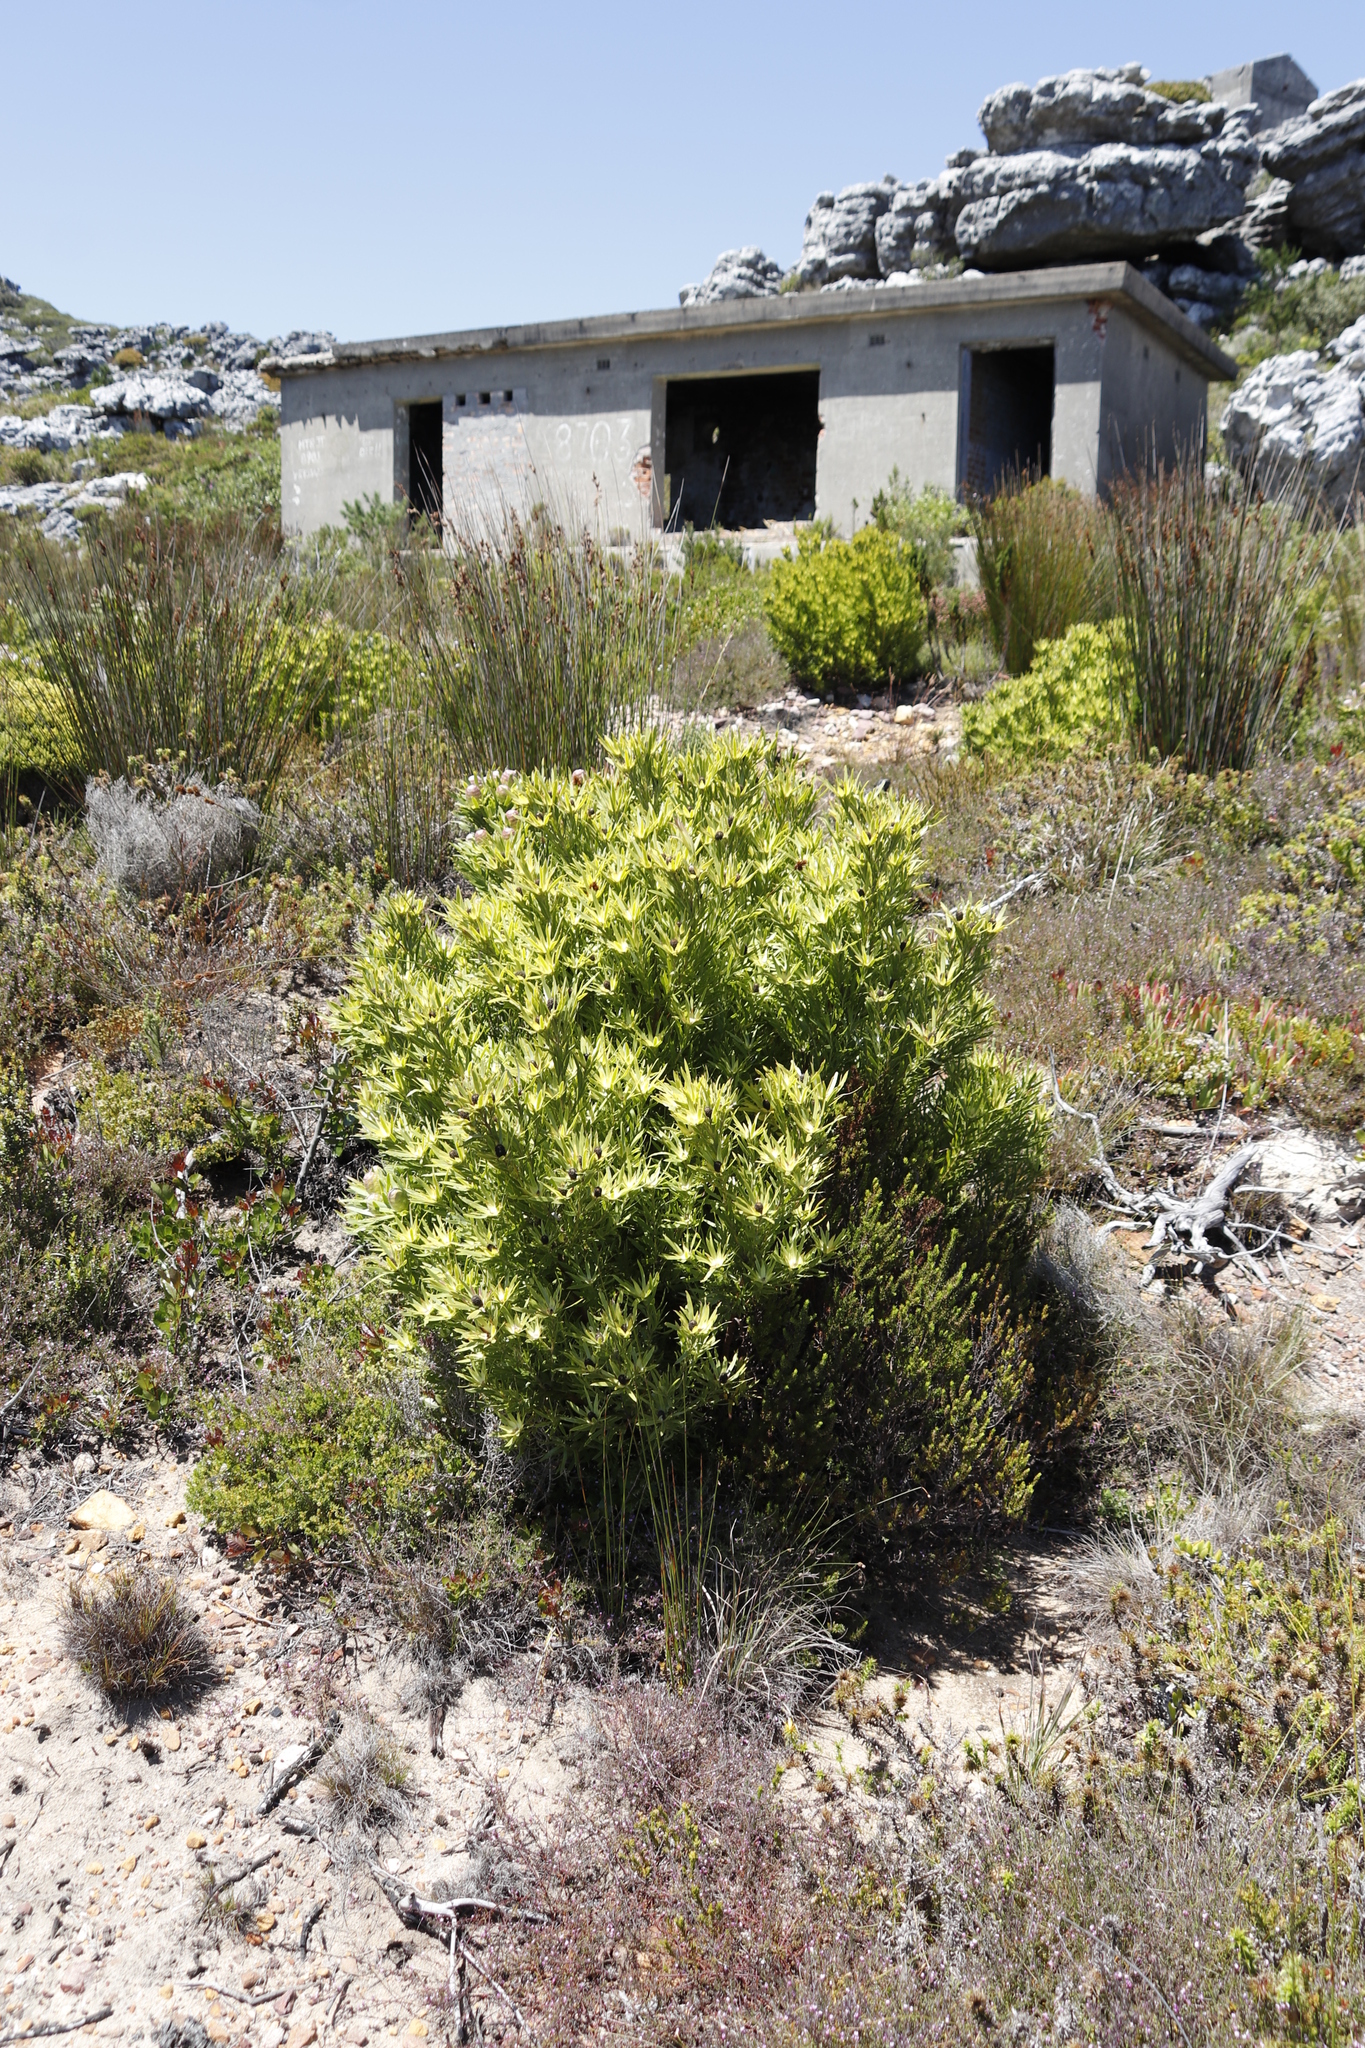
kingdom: Plantae
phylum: Tracheophyta
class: Magnoliopsida
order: Proteales
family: Proteaceae
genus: Leucadendron
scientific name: Leucadendron xanthoconus
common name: Sickle-leaf conebush
